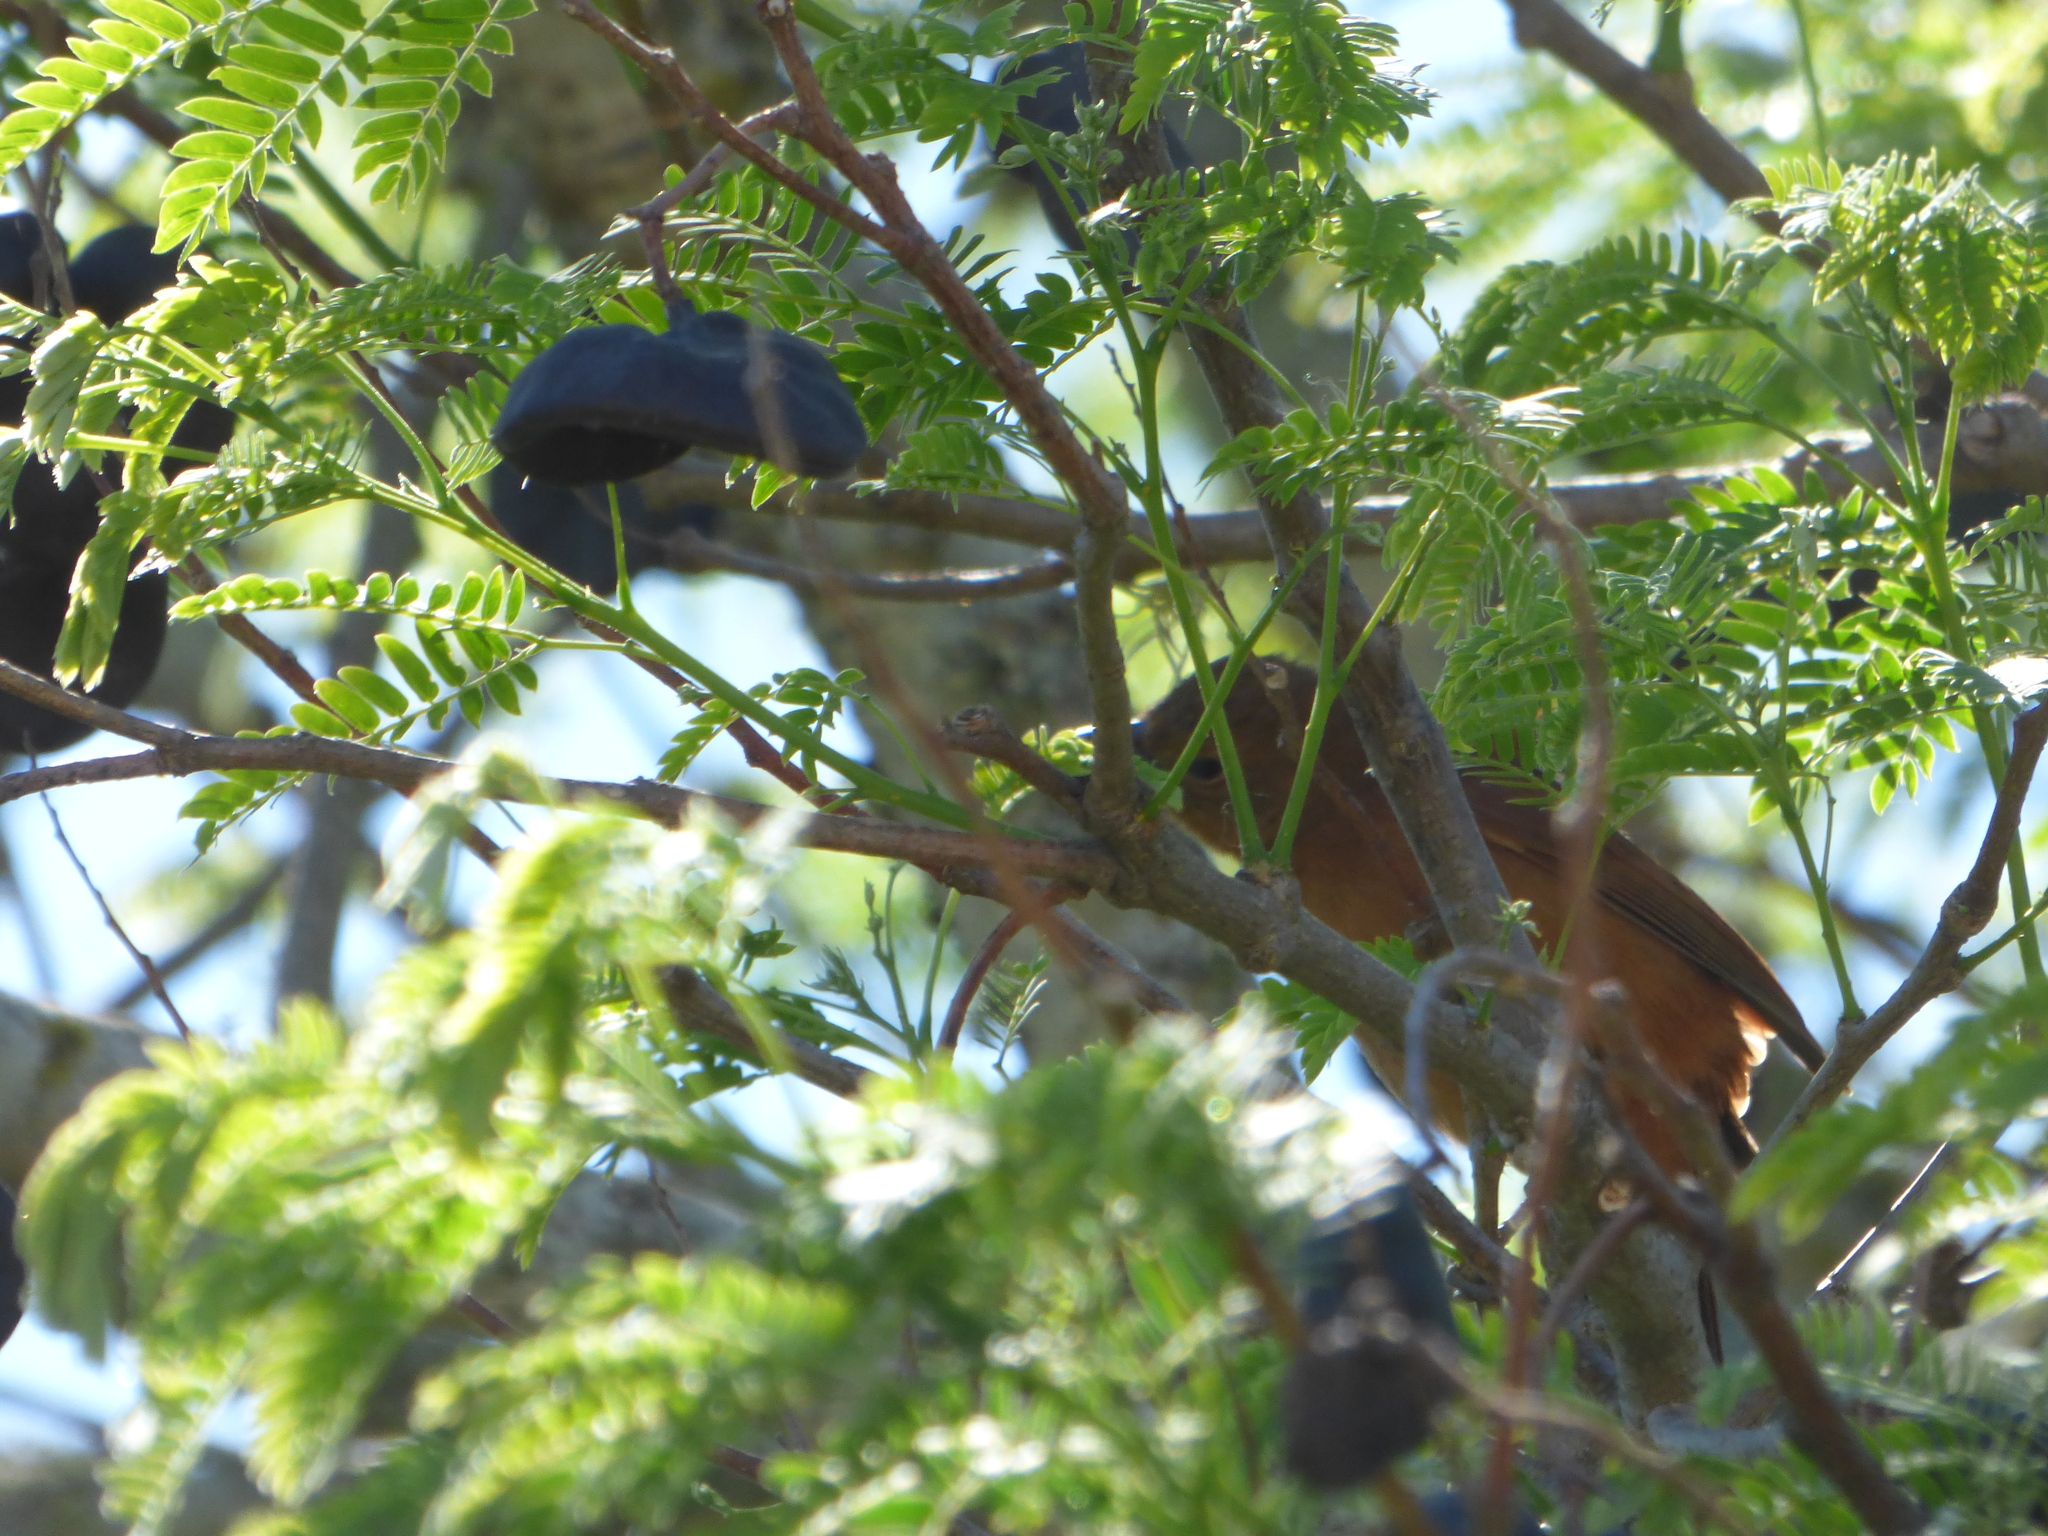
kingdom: Animalia
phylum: Chordata
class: Aves
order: Passeriformes
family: Thraupidae
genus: Tachyphonus
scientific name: Tachyphonus rufus
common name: White-lined tanager
